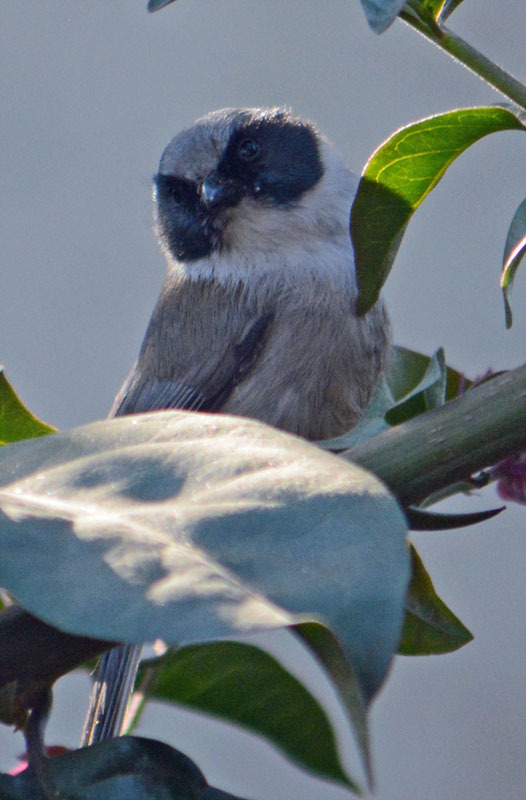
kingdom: Animalia
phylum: Chordata
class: Aves
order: Passeriformes
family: Aegithalidae
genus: Psaltriparus
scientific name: Psaltriparus minimus
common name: American bushtit
